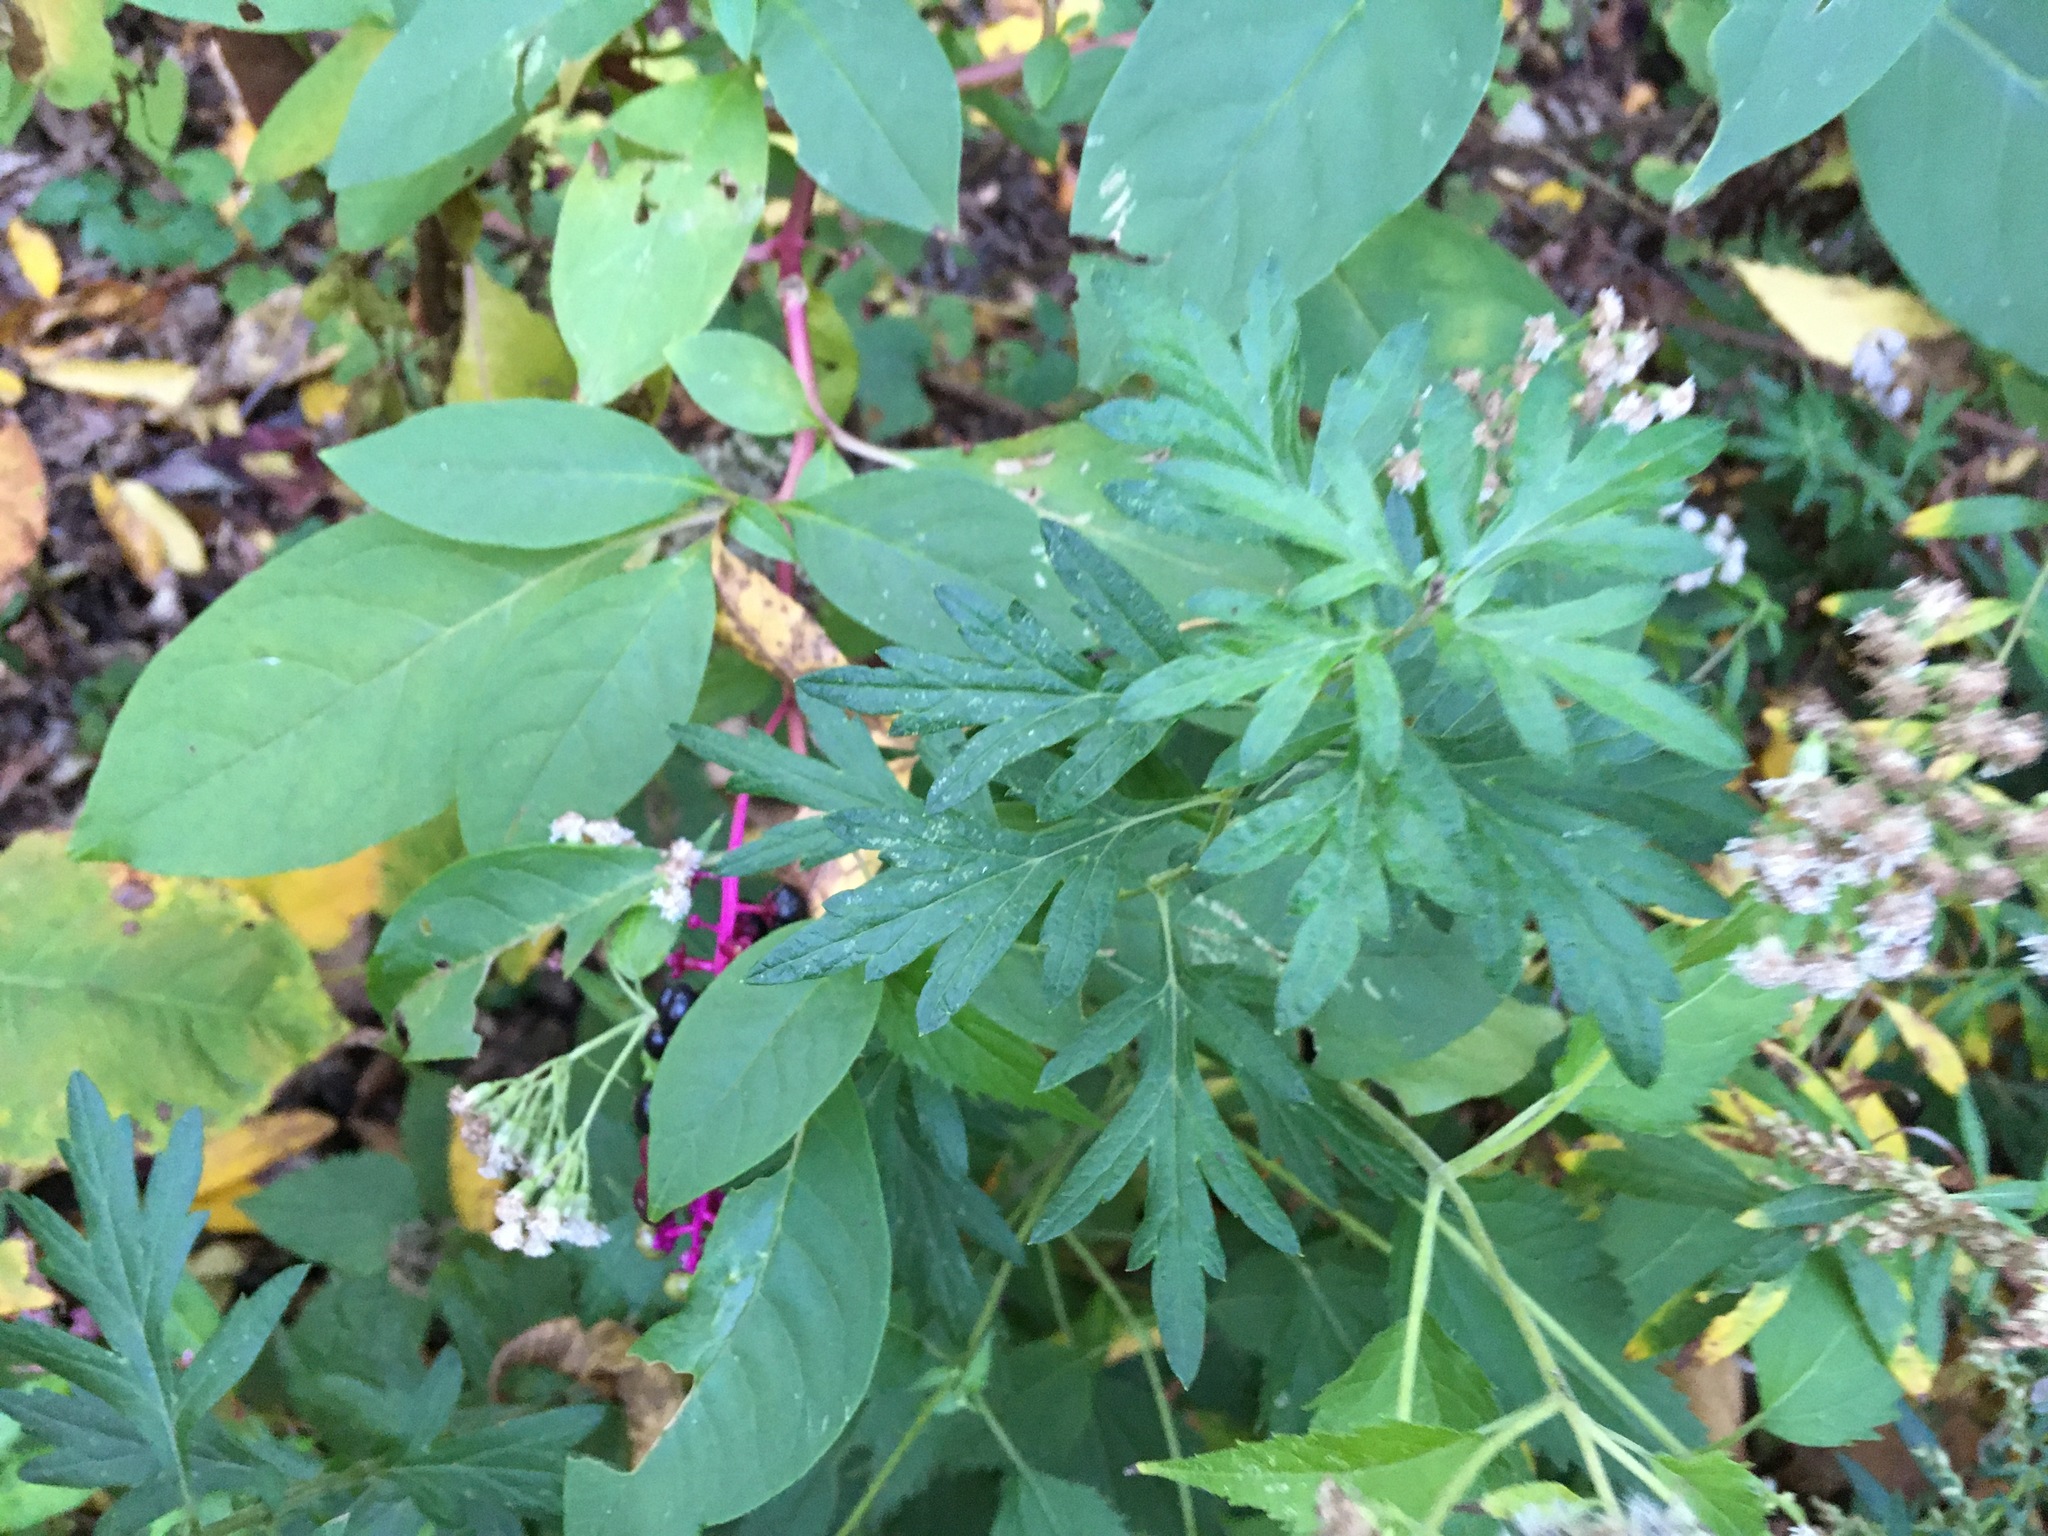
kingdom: Plantae
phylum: Tracheophyta
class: Magnoliopsida
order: Asterales
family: Asteraceae
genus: Artemisia
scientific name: Artemisia vulgaris
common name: Mugwort
